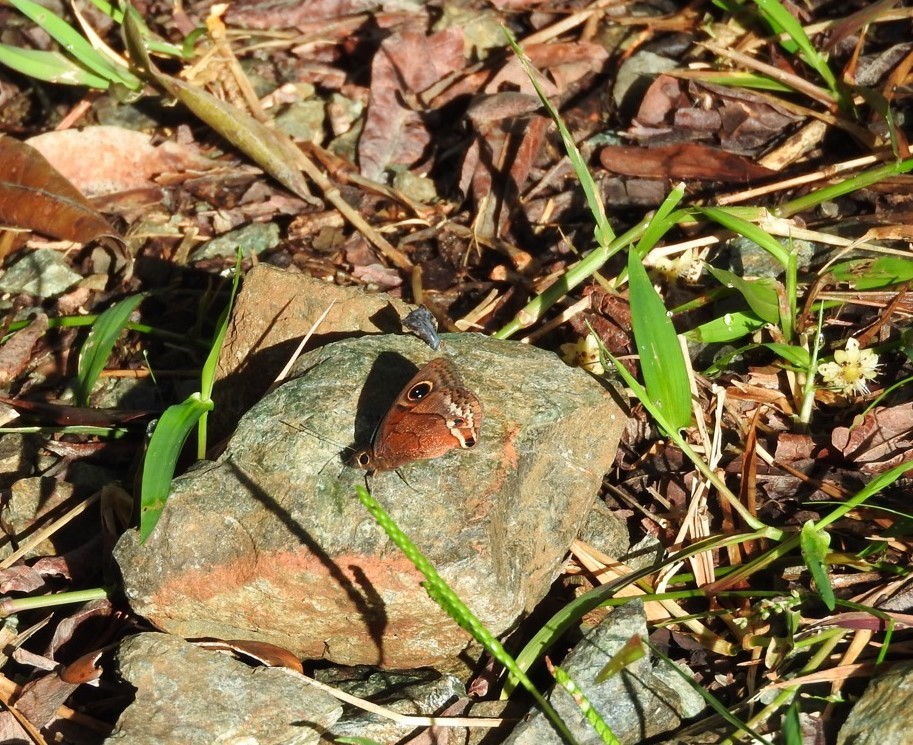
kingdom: Animalia
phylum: Arthropoda
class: Insecta
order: Lepidoptera
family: Nymphalidae
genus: Calisto
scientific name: Calisto nubila
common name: Puerto rican calisto
